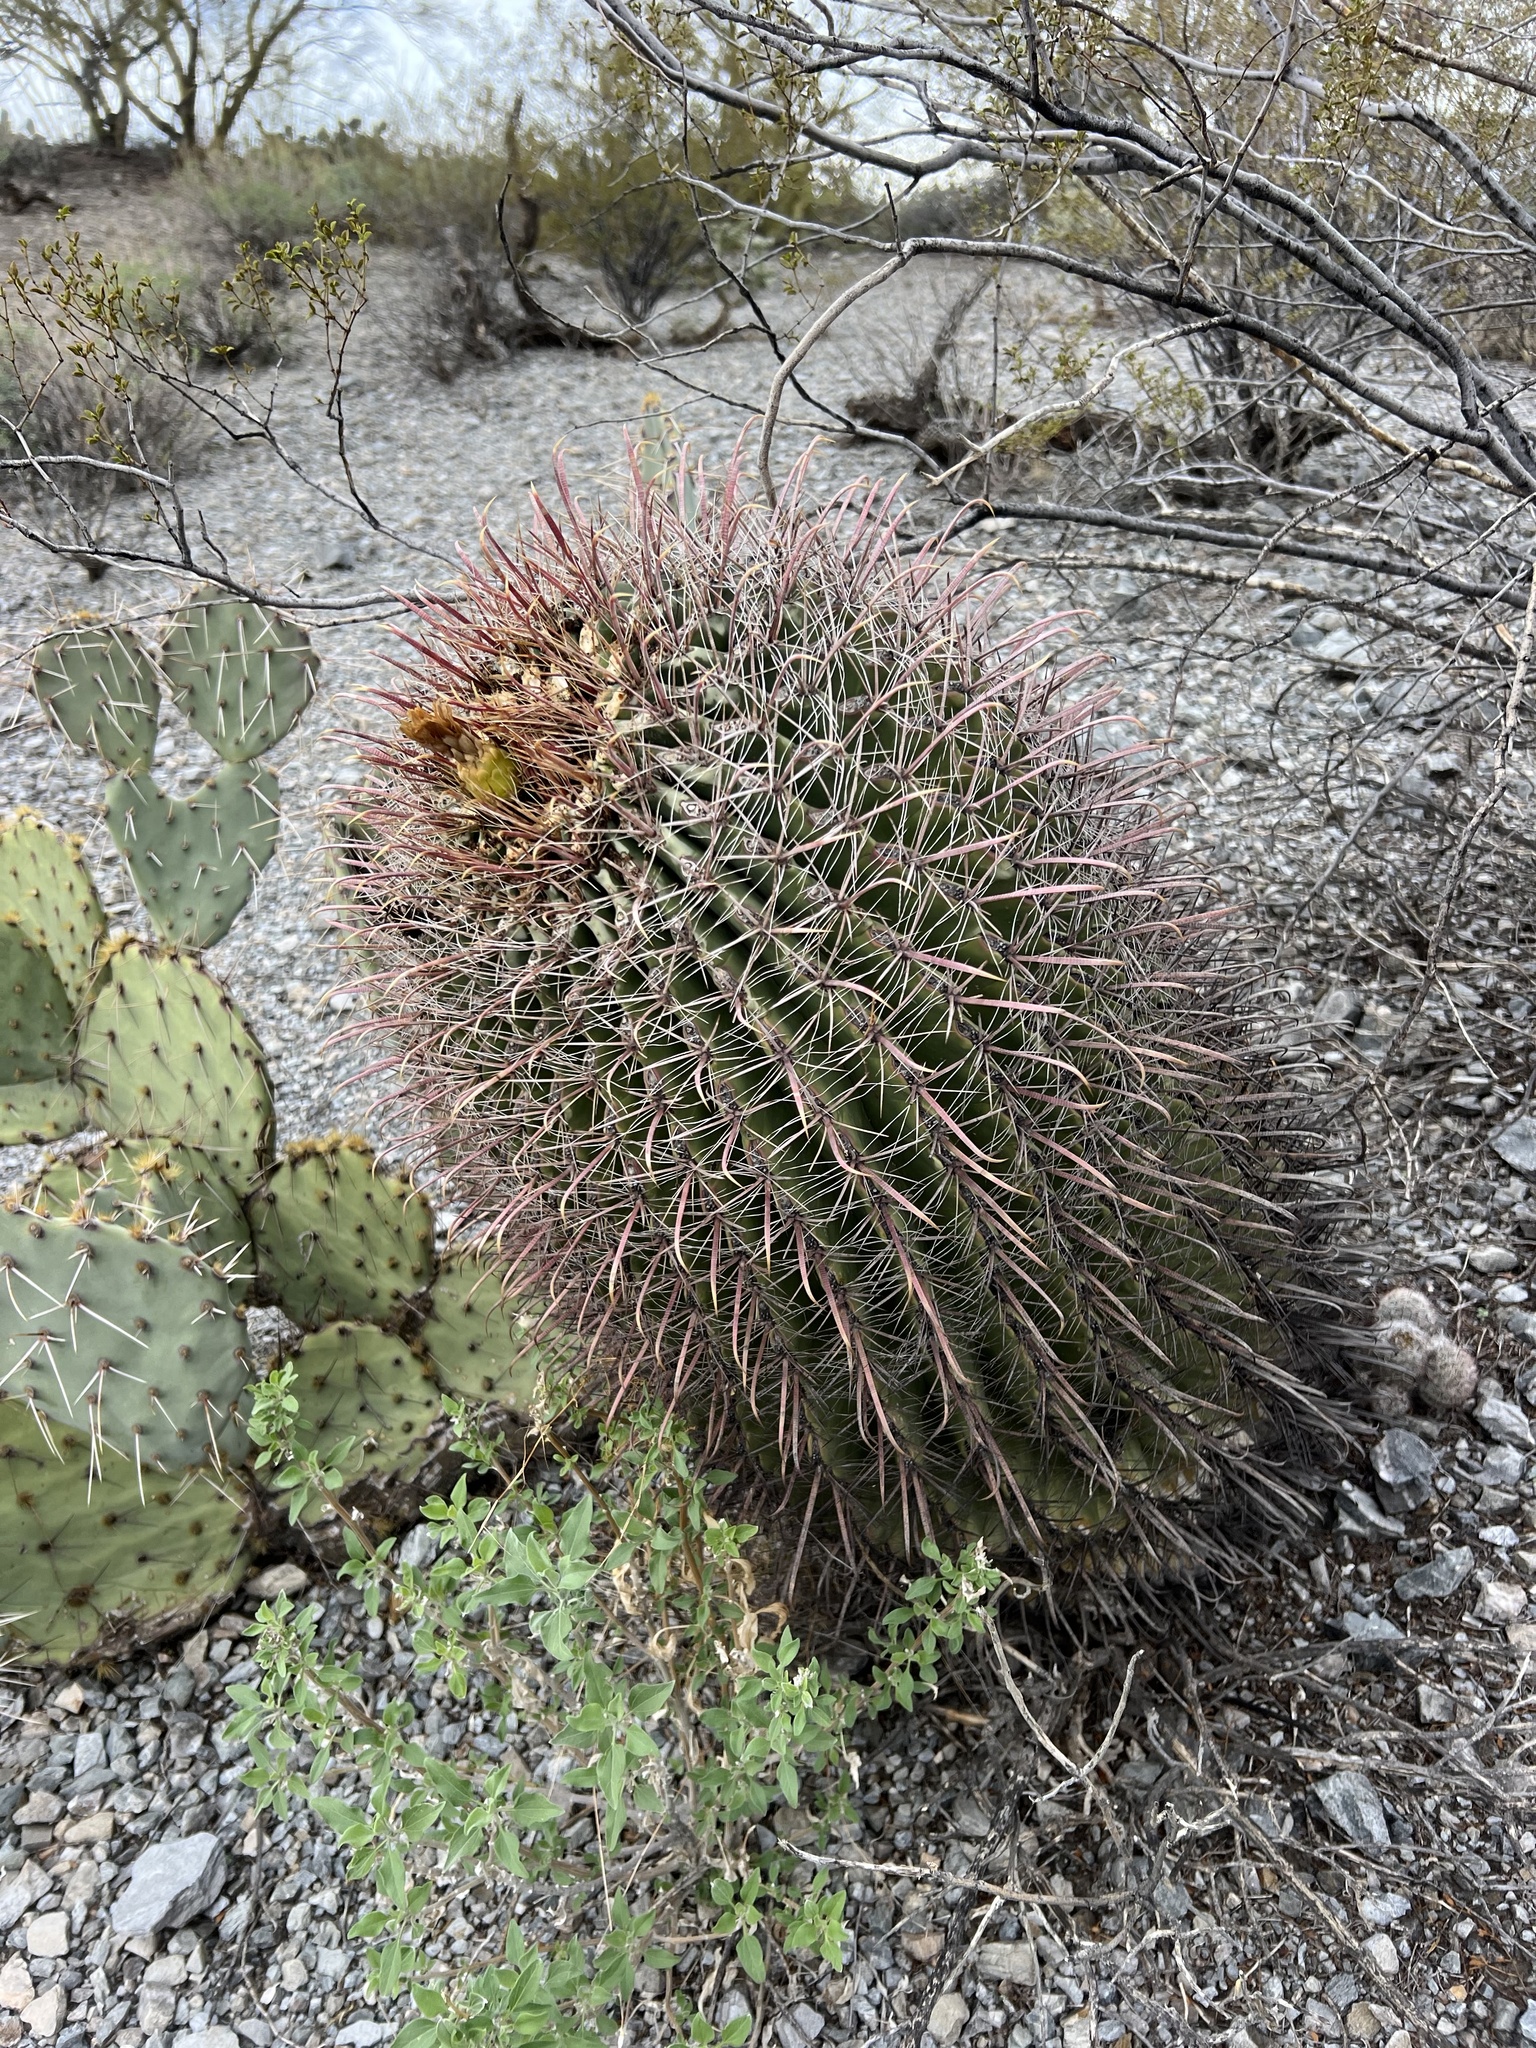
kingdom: Plantae
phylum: Tracheophyta
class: Magnoliopsida
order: Caryophyllales
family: Cactaceae
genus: Ferocactus
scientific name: Ferocactus wislizeni
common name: Candy barrel cactus
